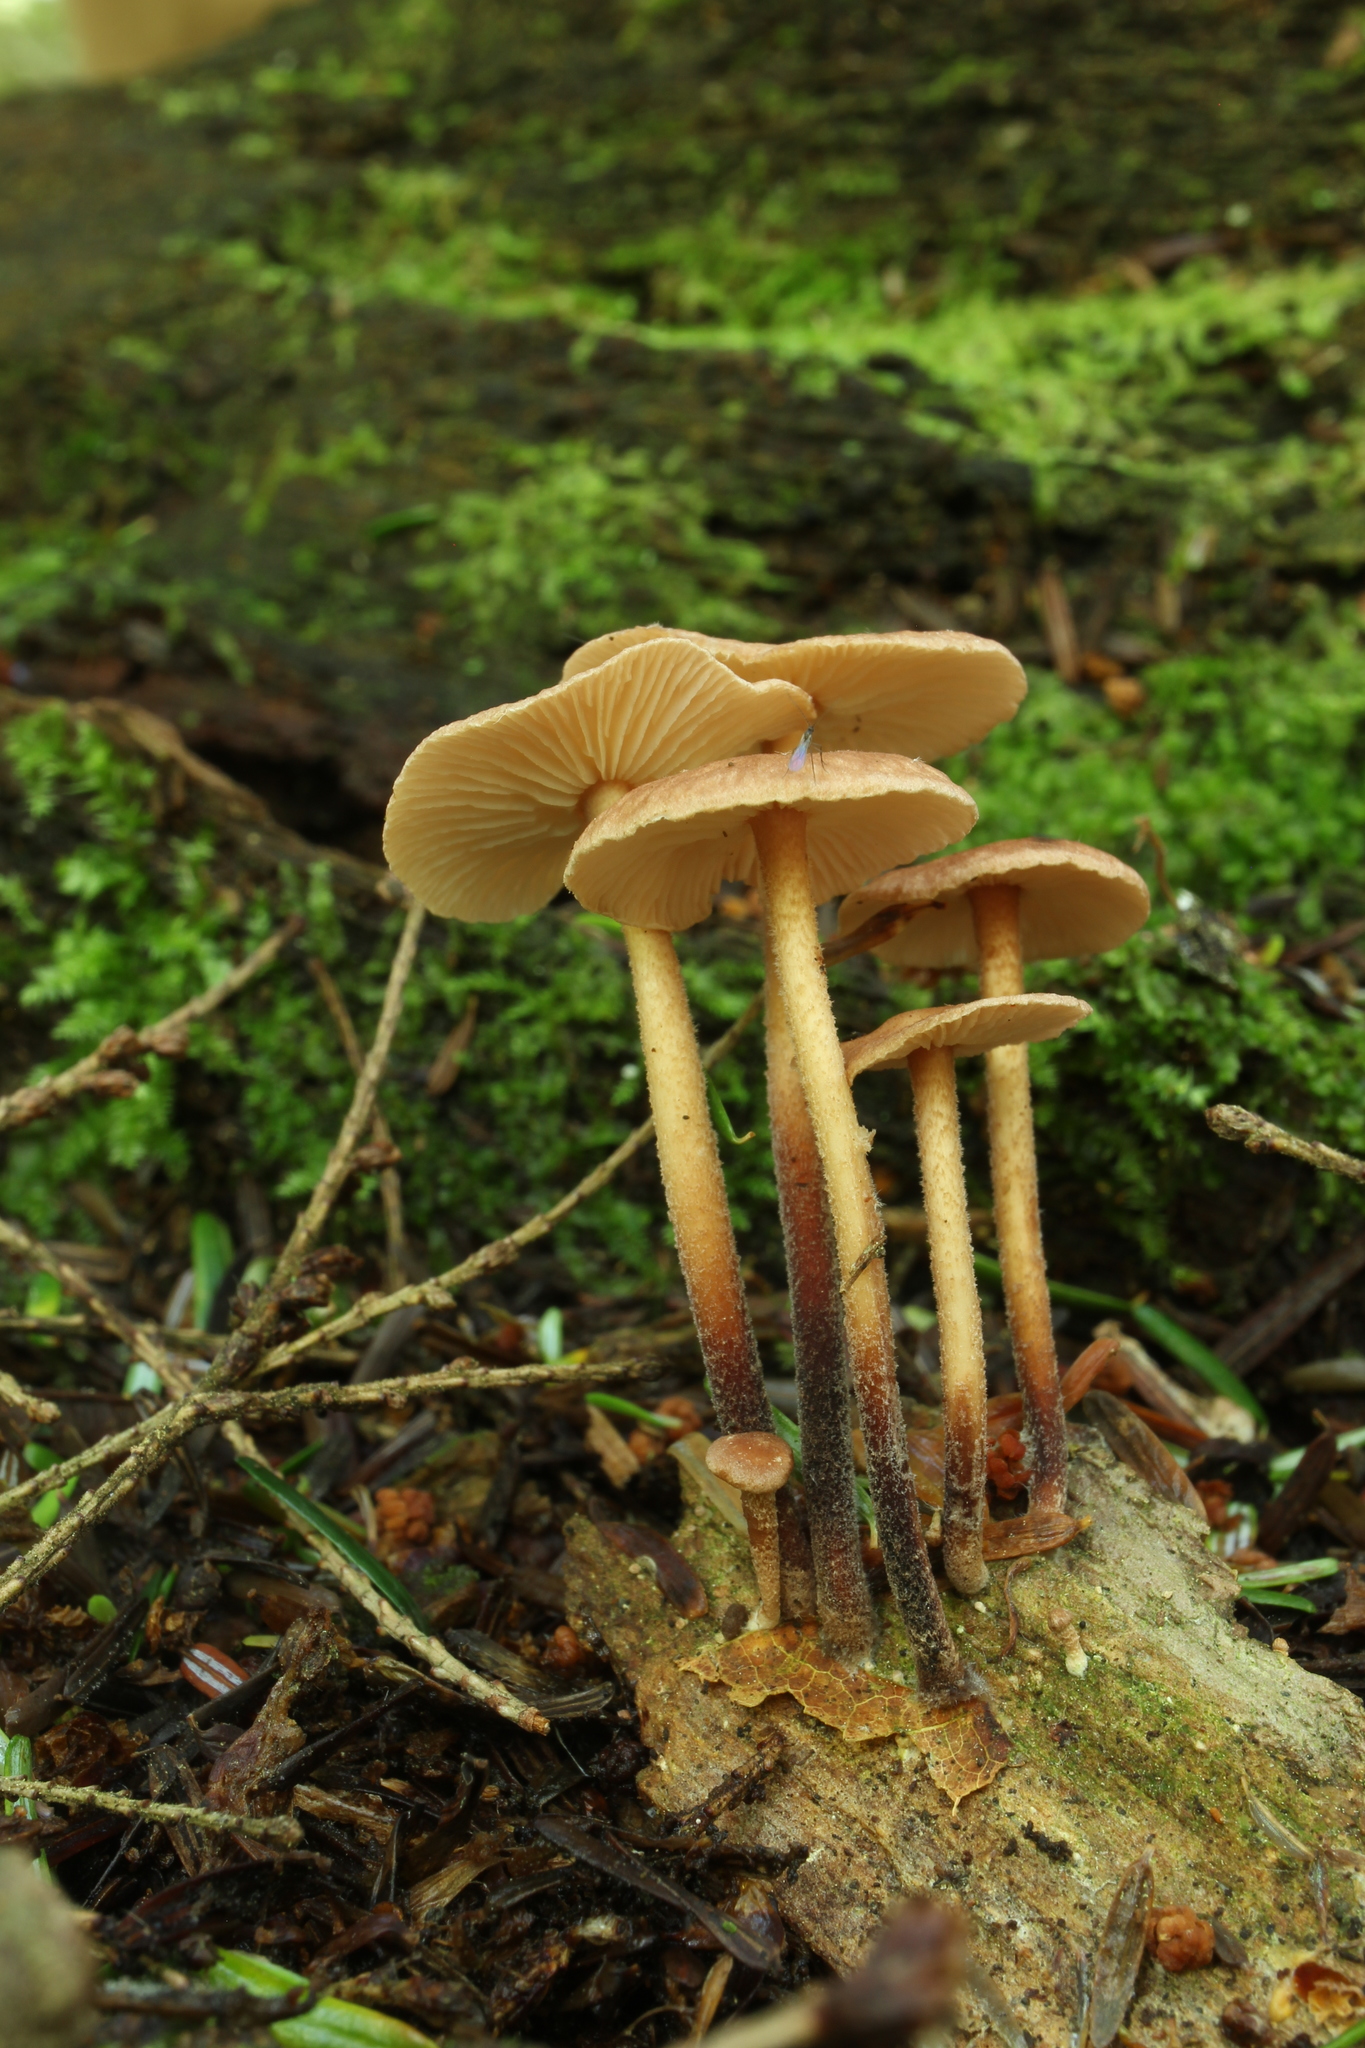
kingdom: Fungi
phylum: Basidiomycota
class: Agaricomycetes
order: Agaricales
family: Omphalotaceae
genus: Collybiopsis
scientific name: Collybiopsis dichroa
